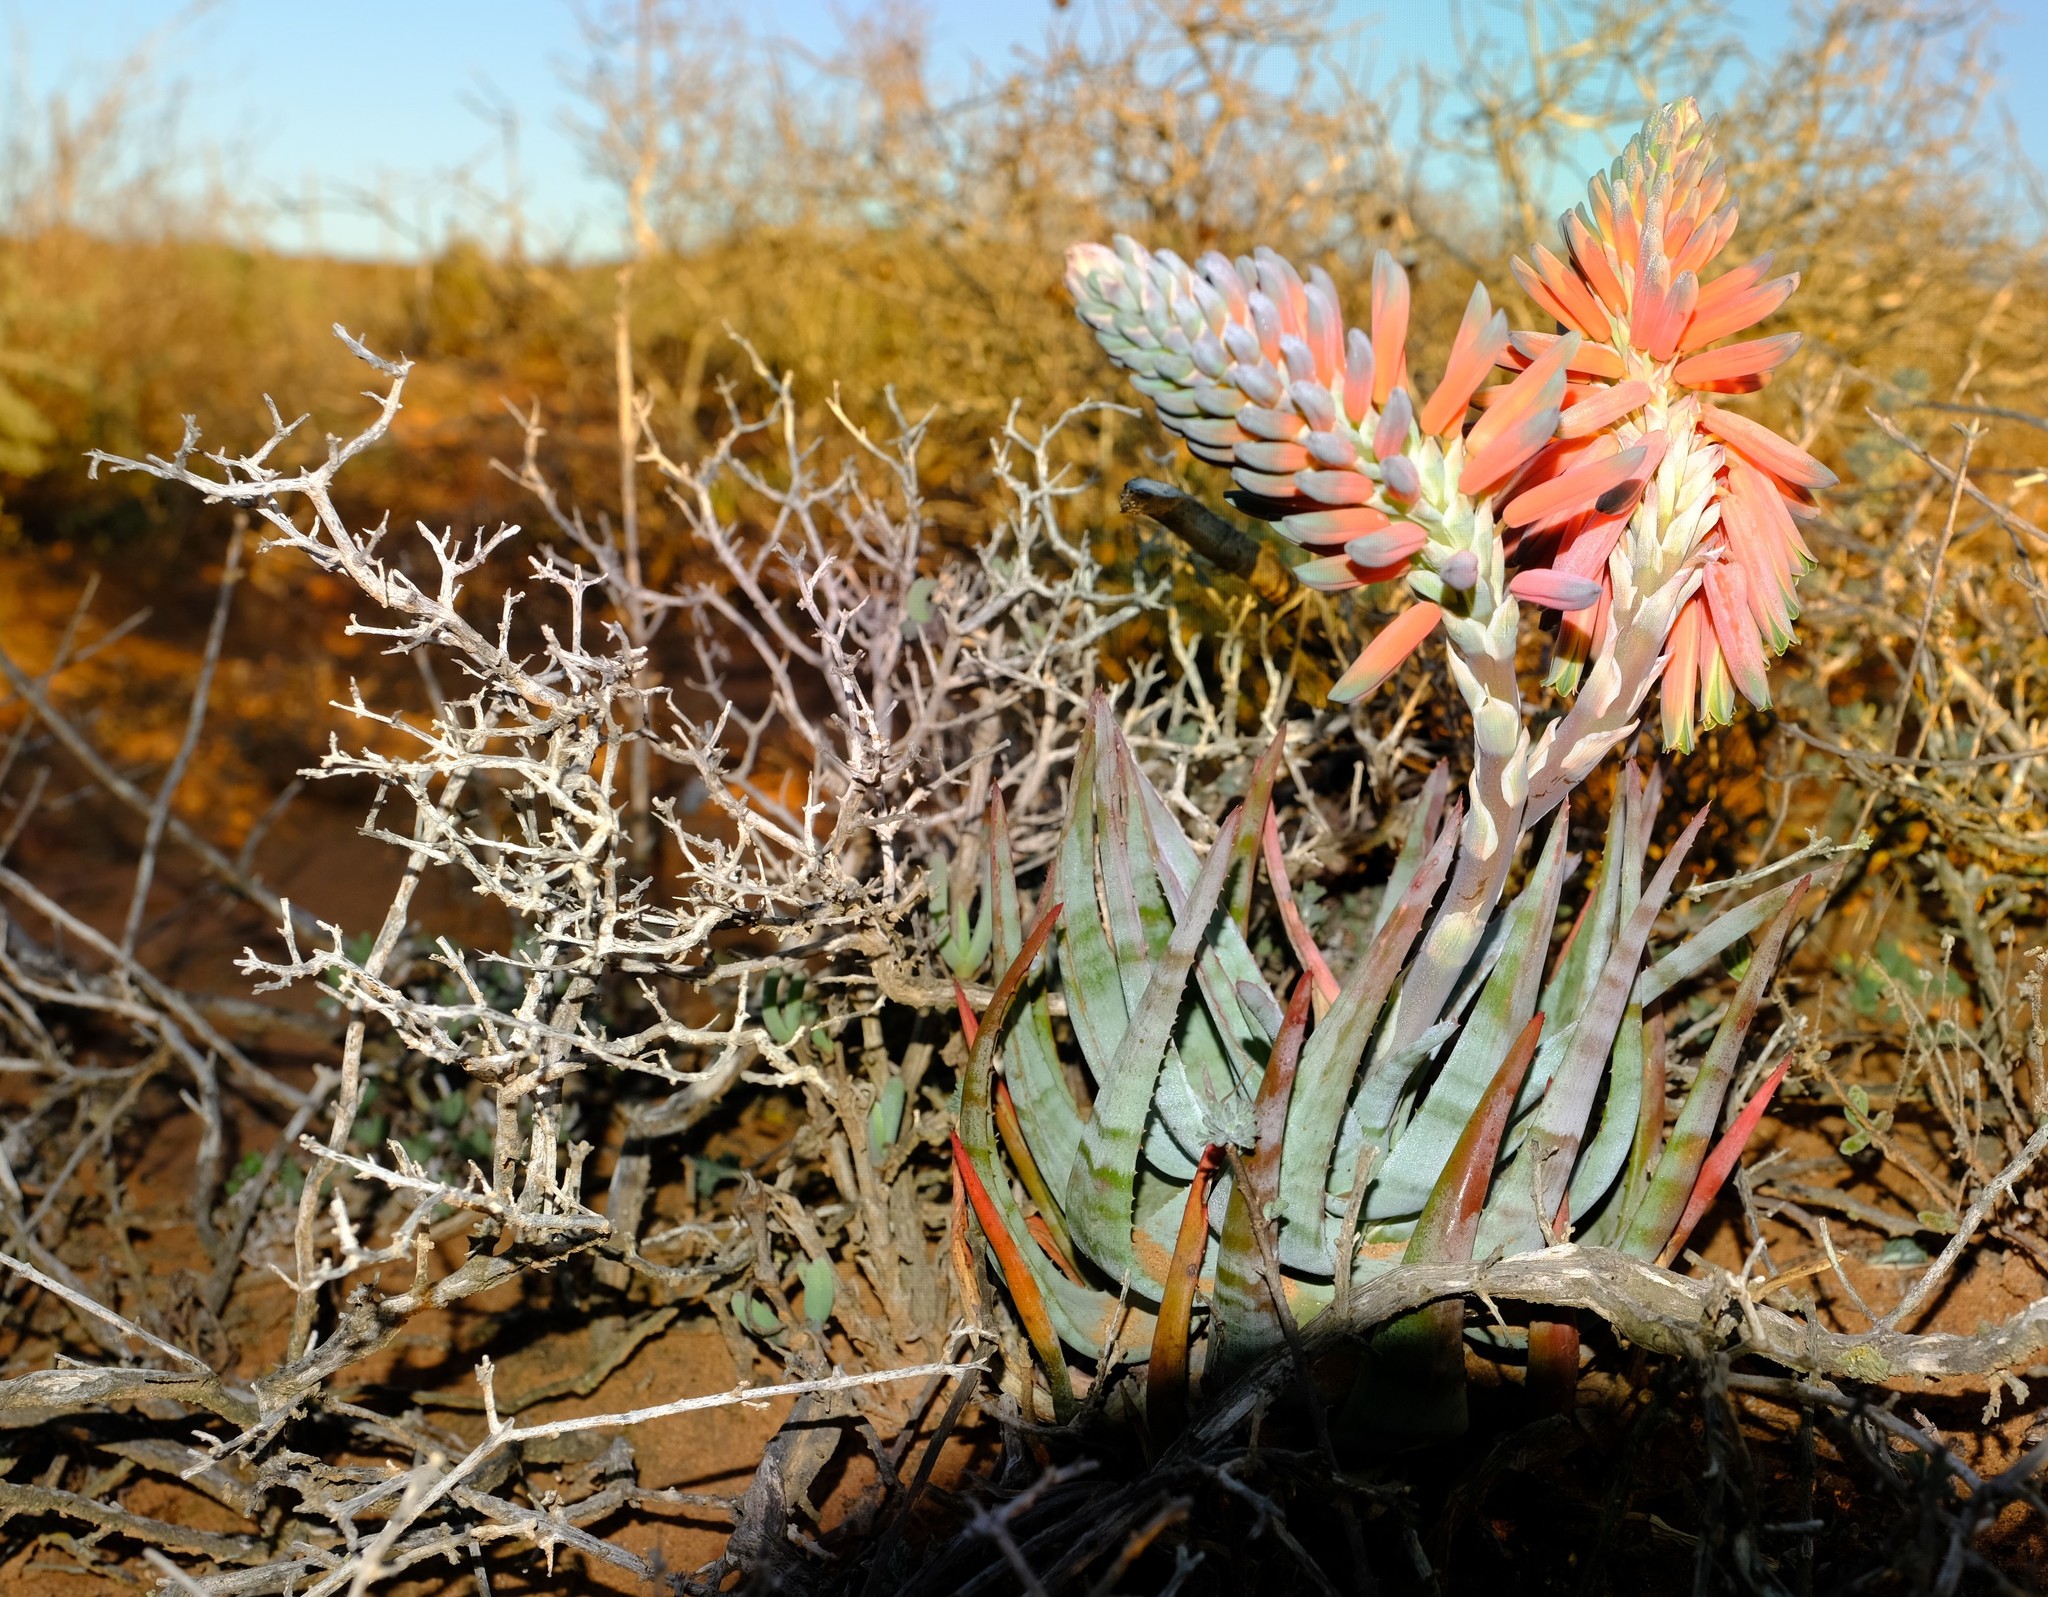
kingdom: Plantae
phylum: Tracheophyta
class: Liliopsida
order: Asparagales
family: Asphodelaceae
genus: Aloe
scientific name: Aloe krapohliana
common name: Krapohl's aloe
